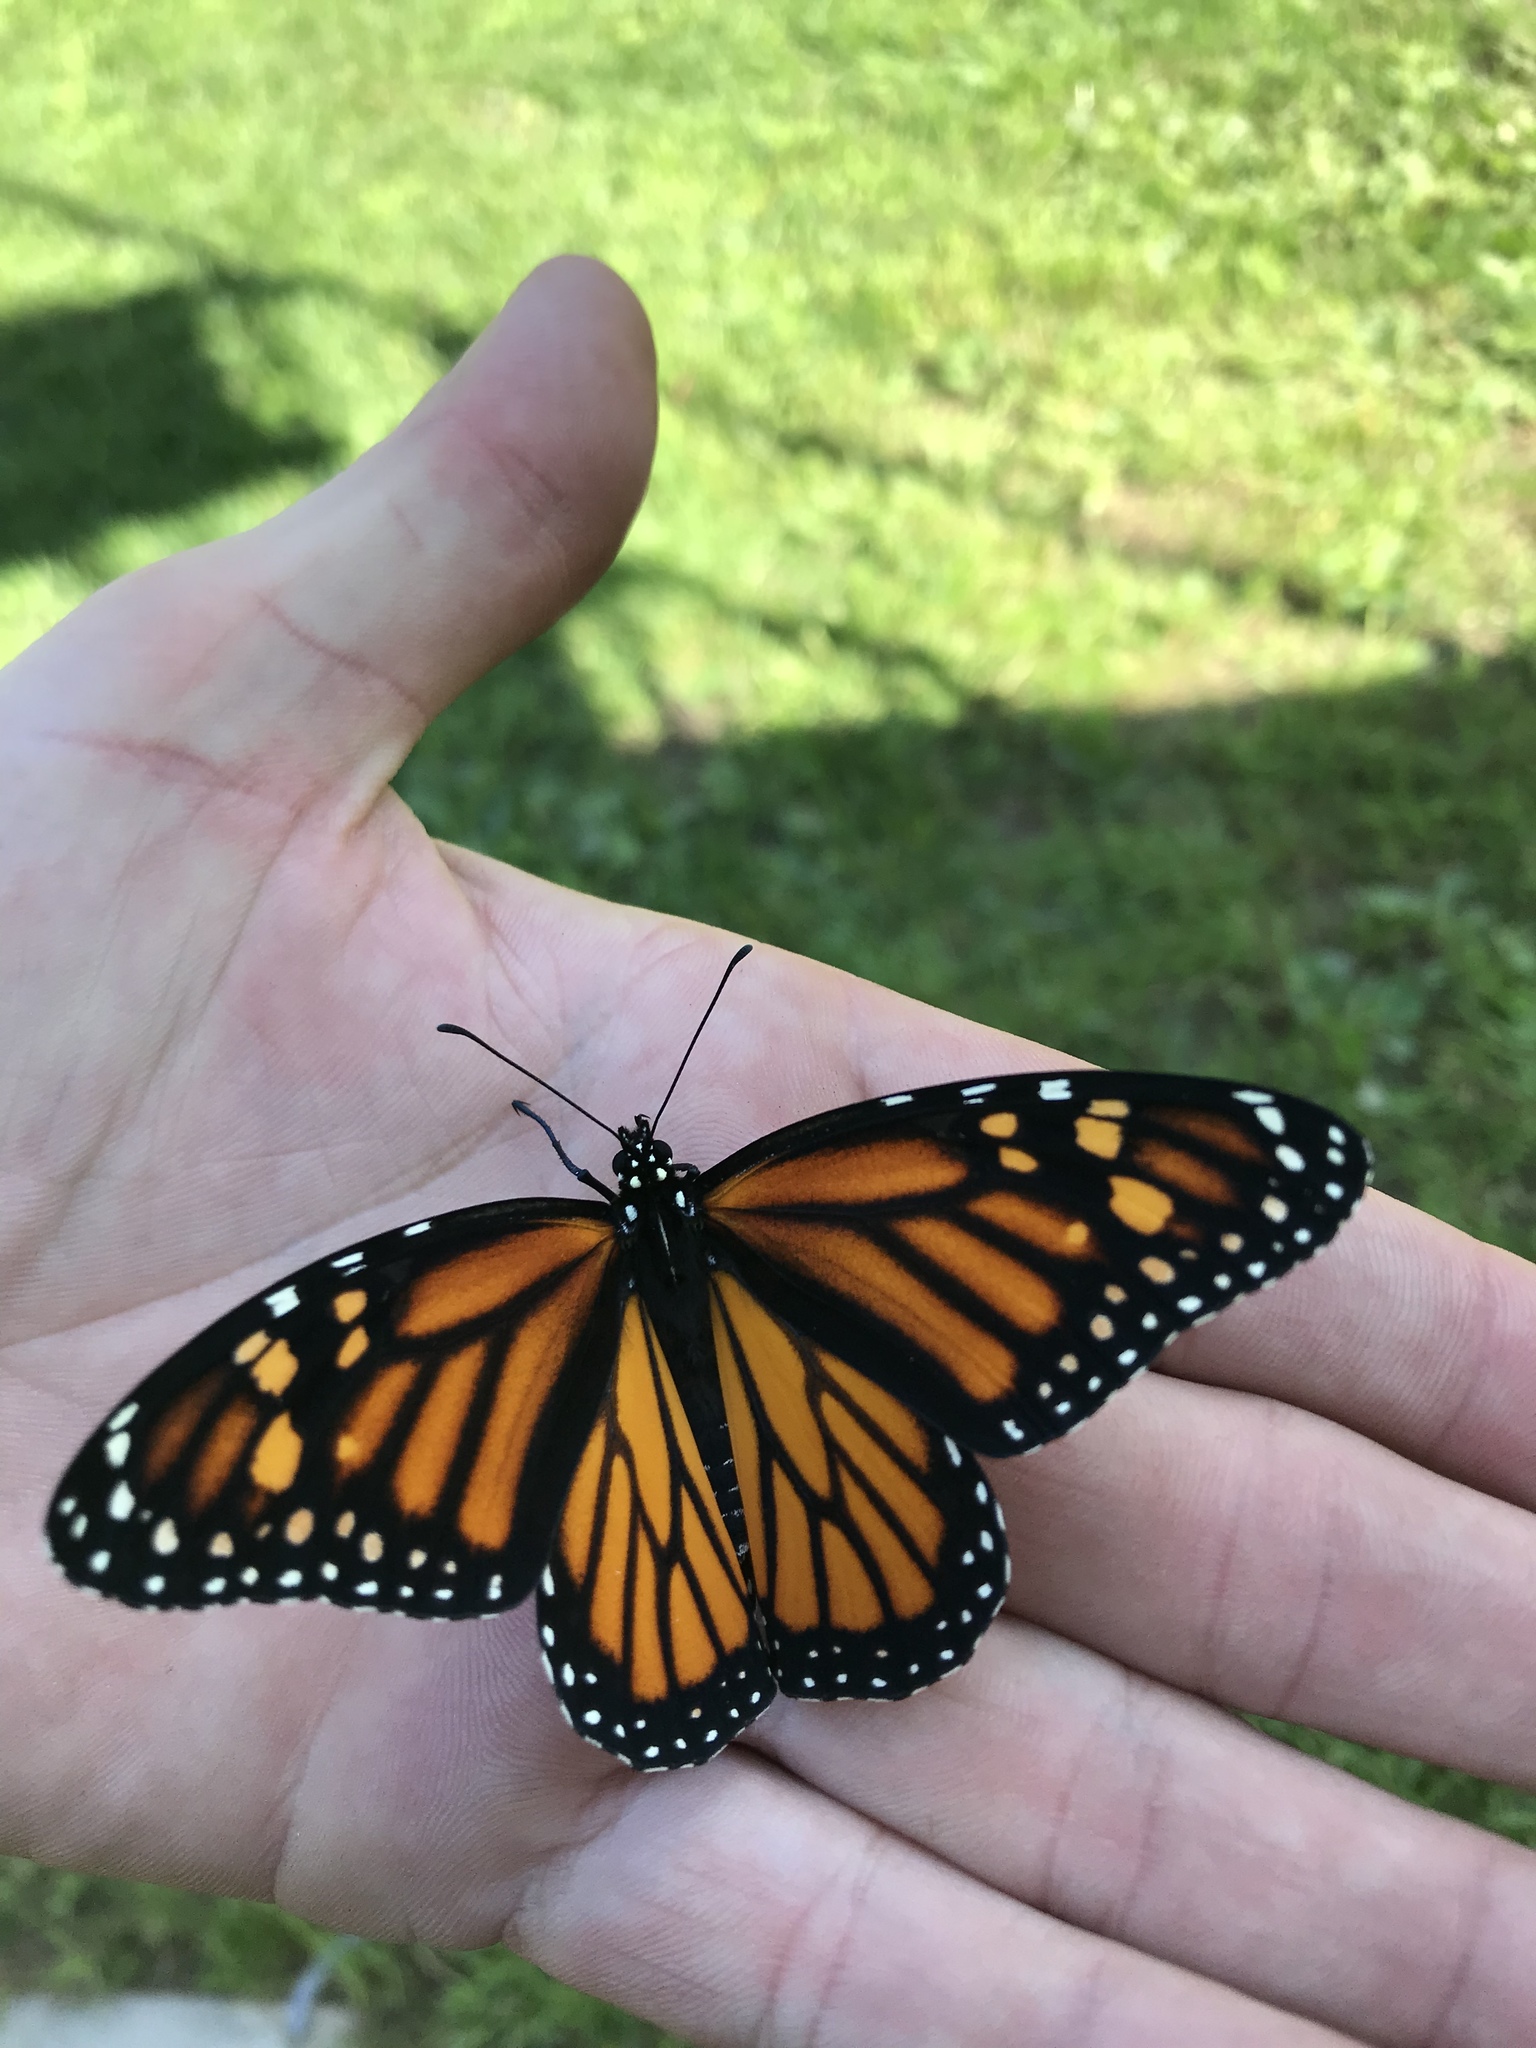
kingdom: Animalia
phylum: Arthropoda
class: Insecta
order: Lepidoptera
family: Nymphalidae
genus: Danaus
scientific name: Danaus plexippus
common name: Monarch
